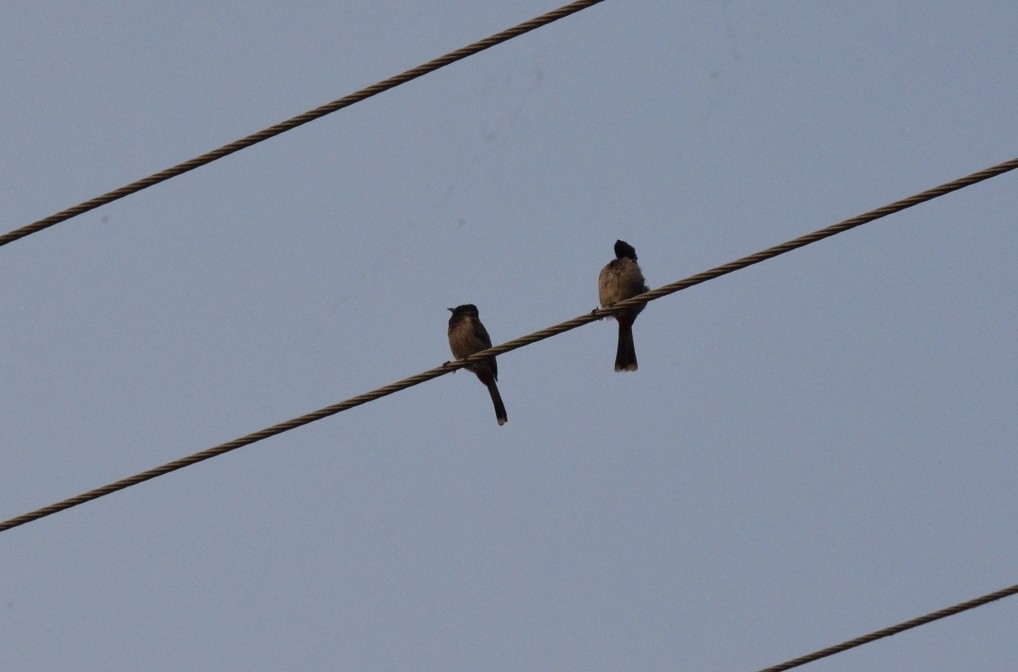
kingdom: Animalia
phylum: Chordata
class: Aves
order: Passeriformes
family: Pycnonotidae
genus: Pycnonotus
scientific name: Pycnonotus cafer
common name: Red-vented bulbul
